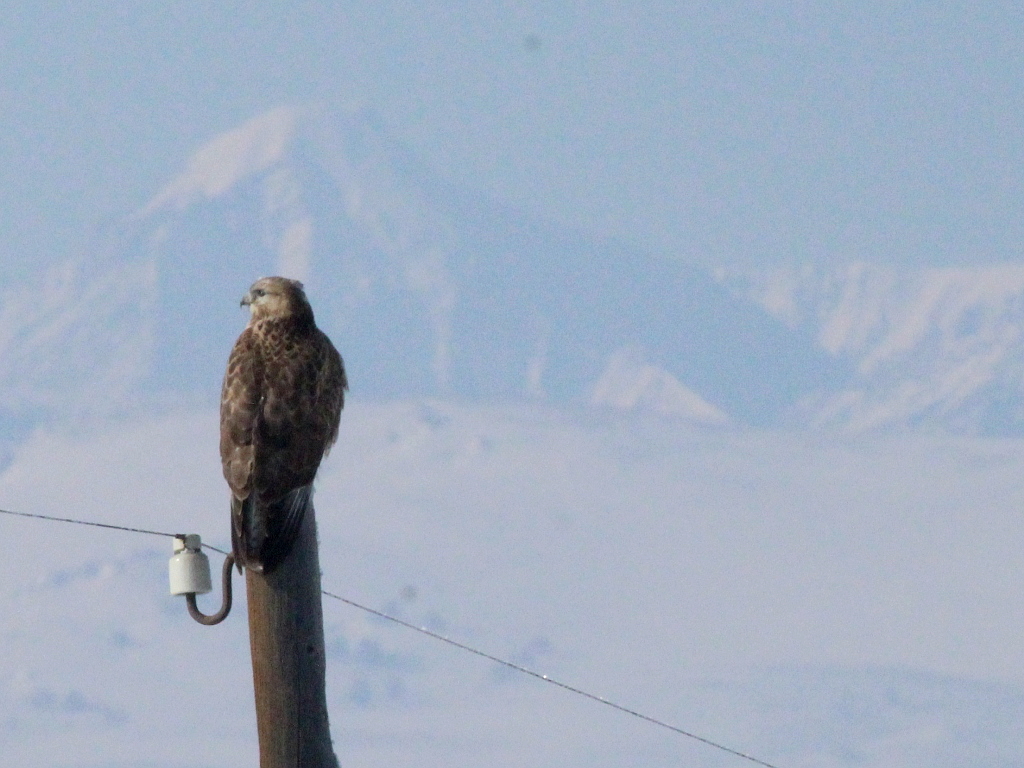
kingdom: Animalia
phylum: Chordata
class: Aves
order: Accipitriformes
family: Accipitridae
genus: Buteo
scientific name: Buteo hemilasius
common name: Upland buzzard
